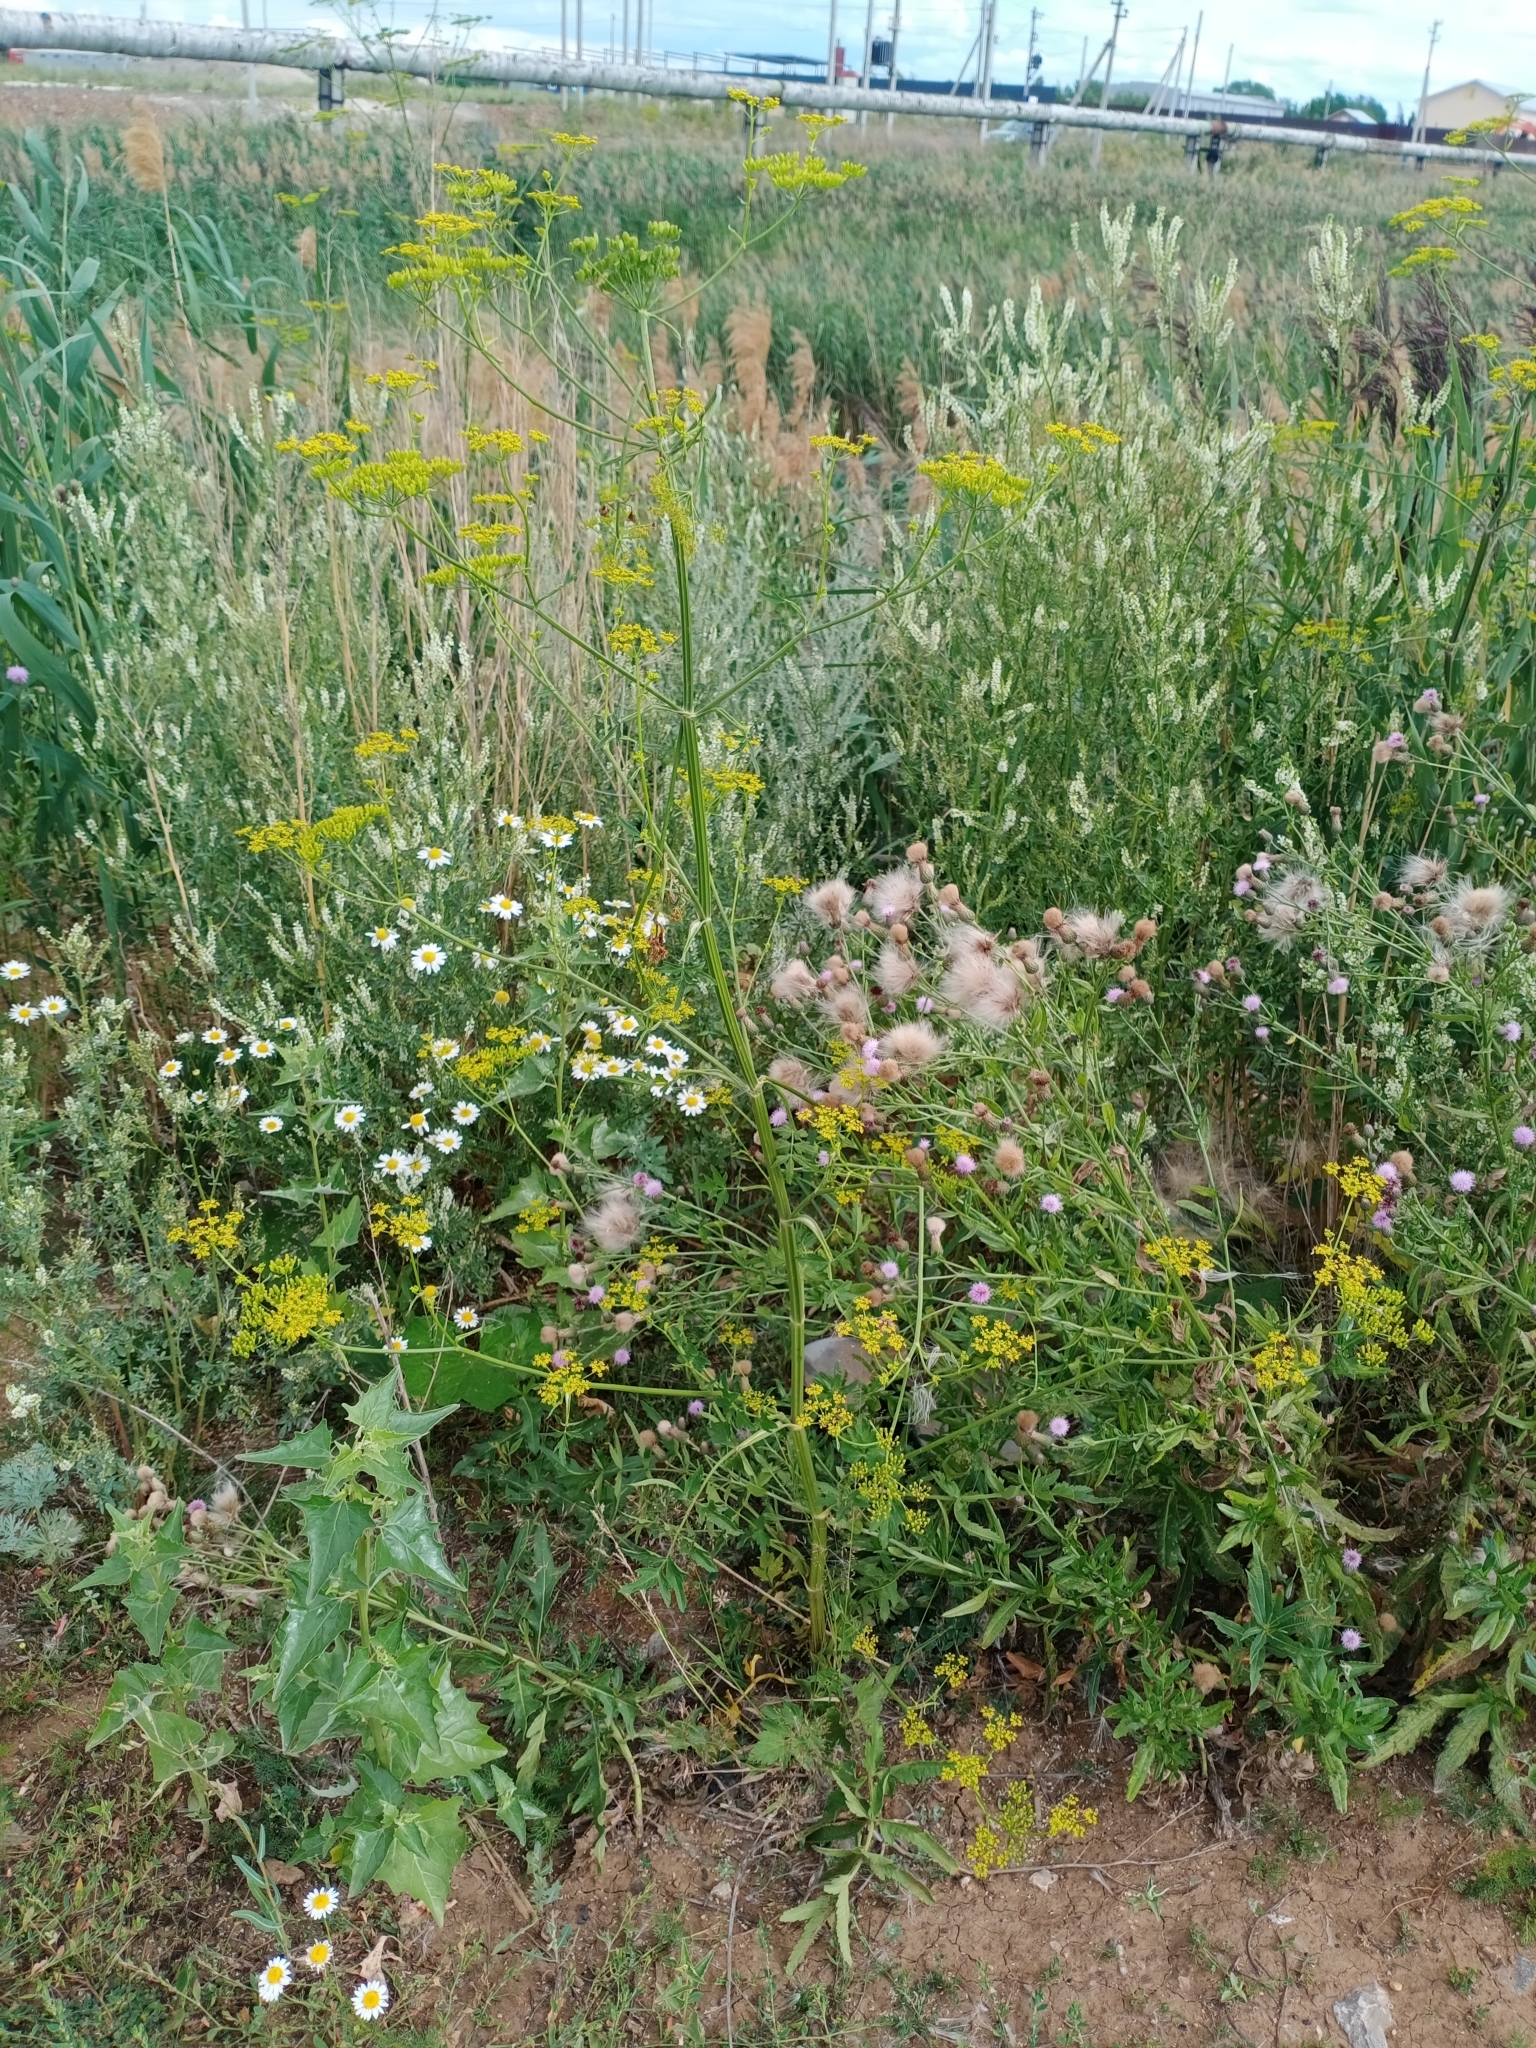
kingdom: Plantae
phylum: Tracheophyta
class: Magnoliopsida
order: Apiales
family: Apiaceae
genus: Pastinaca
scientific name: Pastinaca sativa
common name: Wild parsnip
